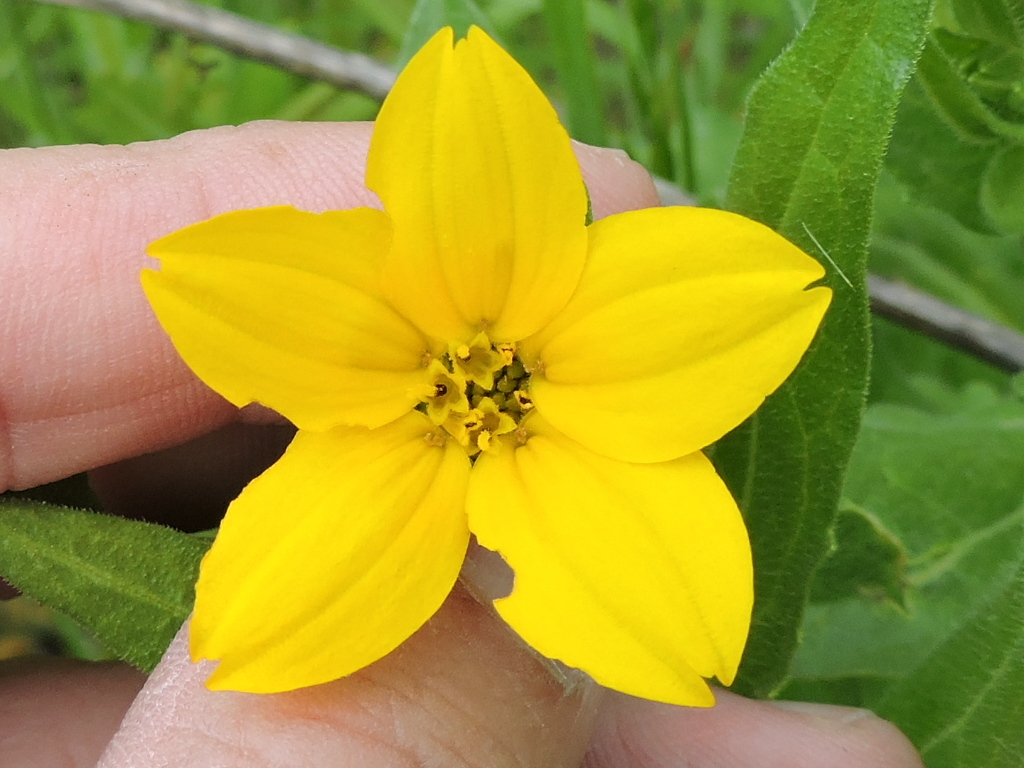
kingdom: Plantae
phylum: Tracheophyta
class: Magnoliopsida
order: Asterales
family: Asteraceae
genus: Lindheimera
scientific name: Lindheimera texana
